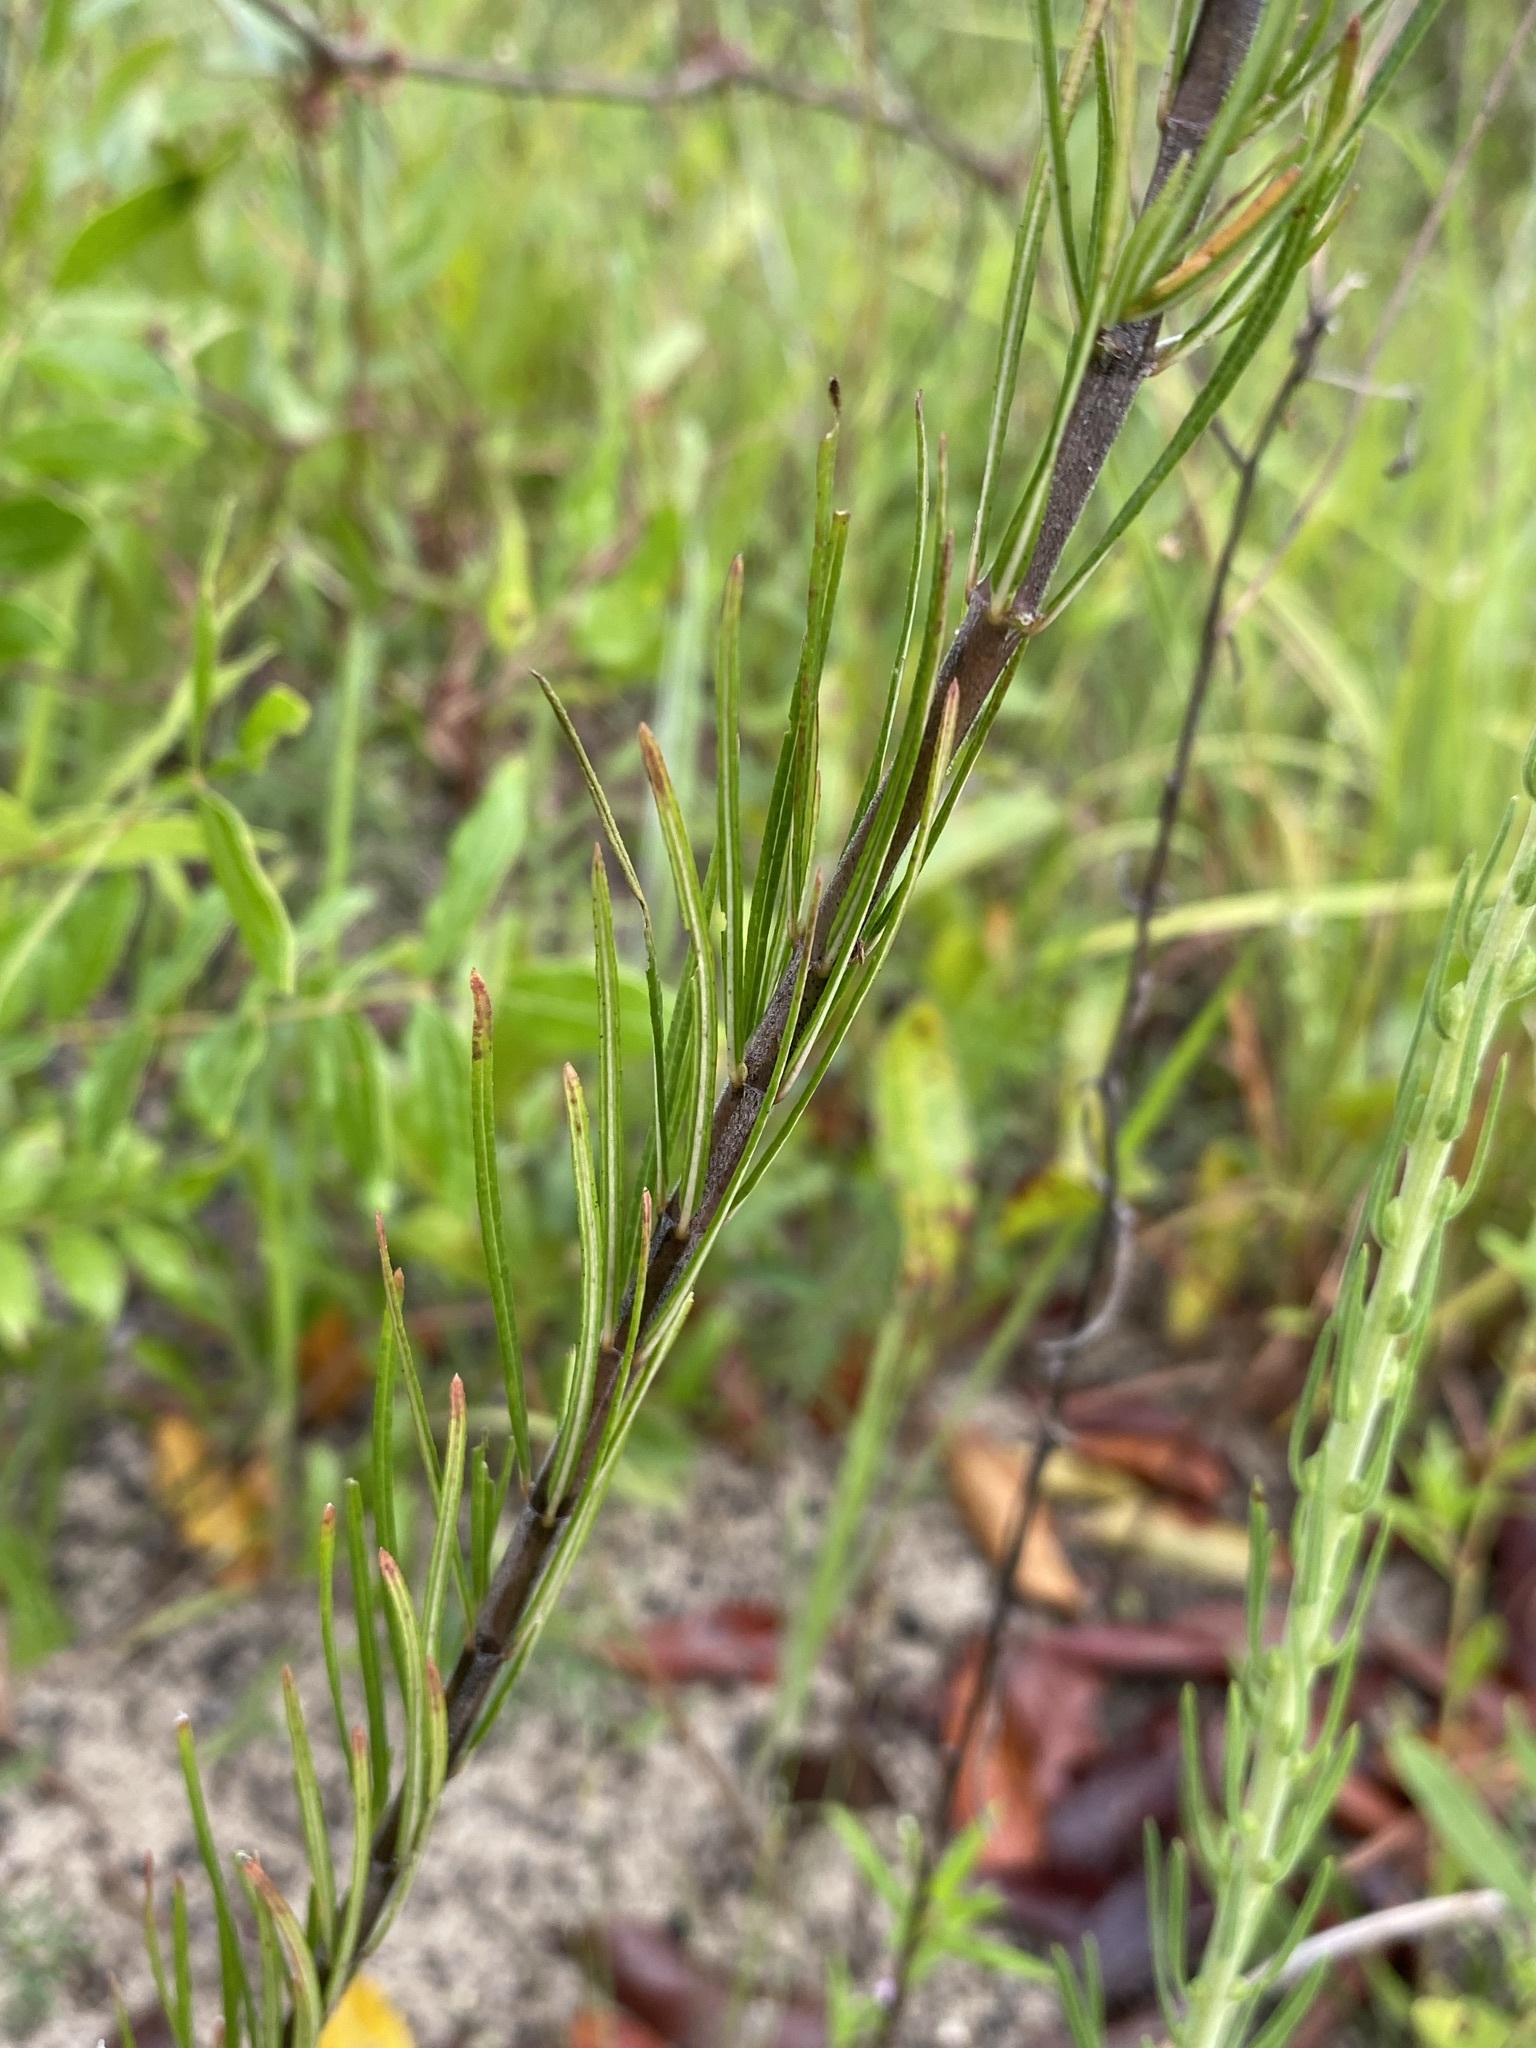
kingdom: Plantae
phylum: Tracheophyta
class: Magnoliopsida
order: Gentianales
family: Apocynaceae
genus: Asclepias
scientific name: Asclepias verticillata
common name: Eastern whorled milkweed
